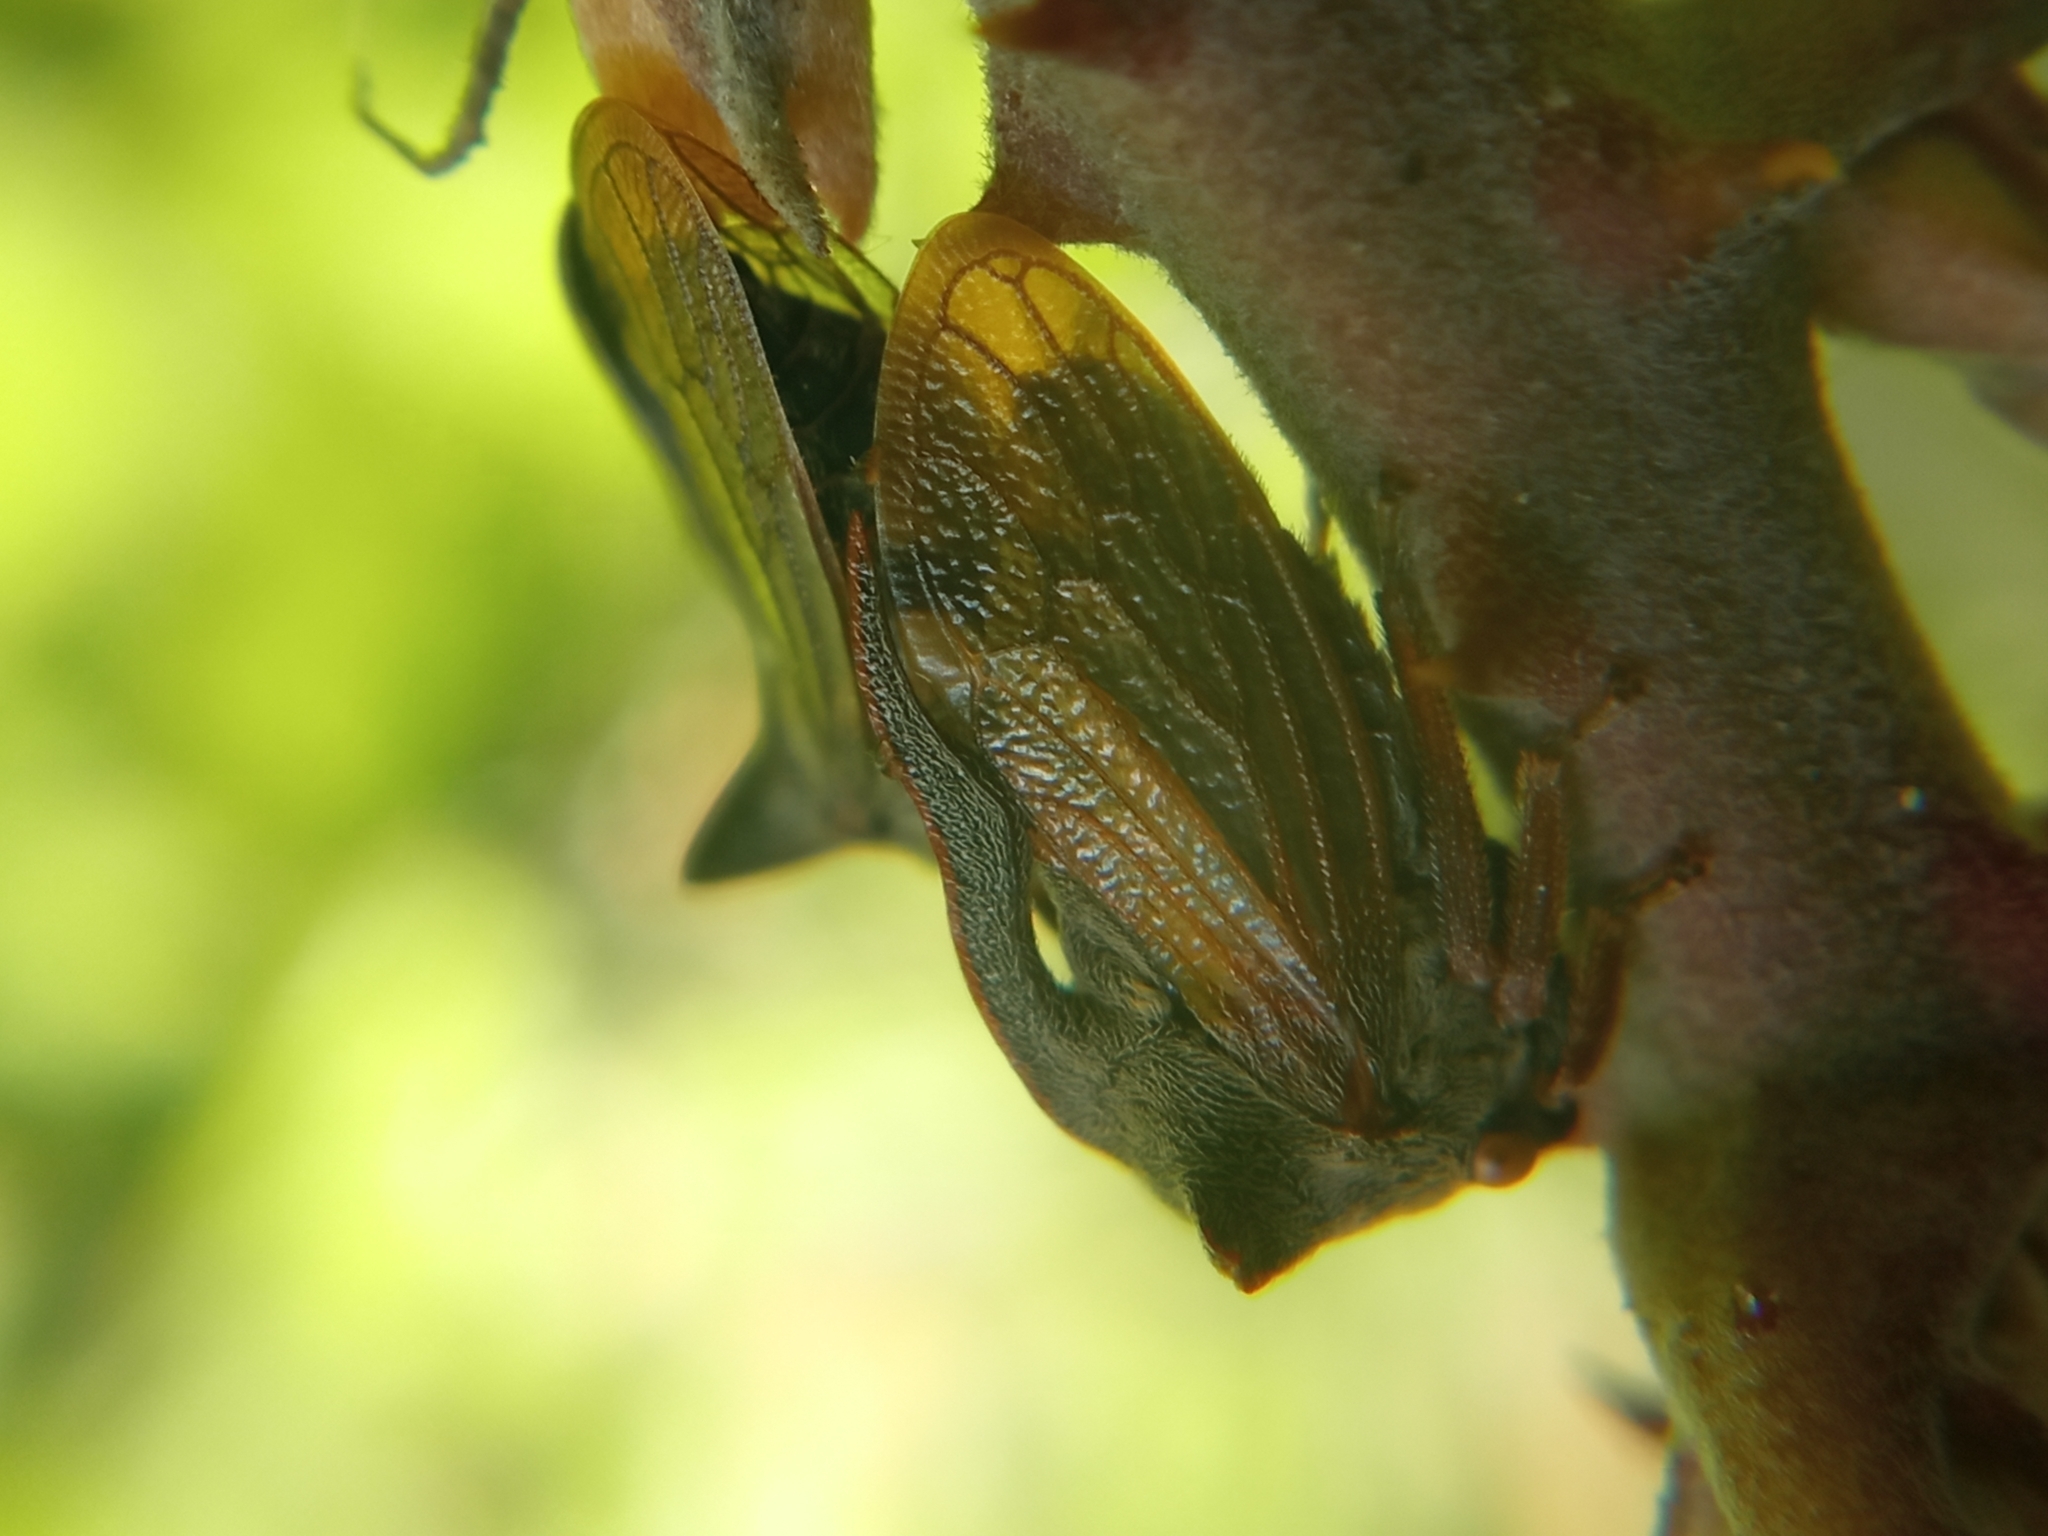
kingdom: Animalia
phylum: Arthropoda
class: Insecta
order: Hemiptera
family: Membracidae
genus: Centrotus
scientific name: Centrotus cornuta
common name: Treehopper
